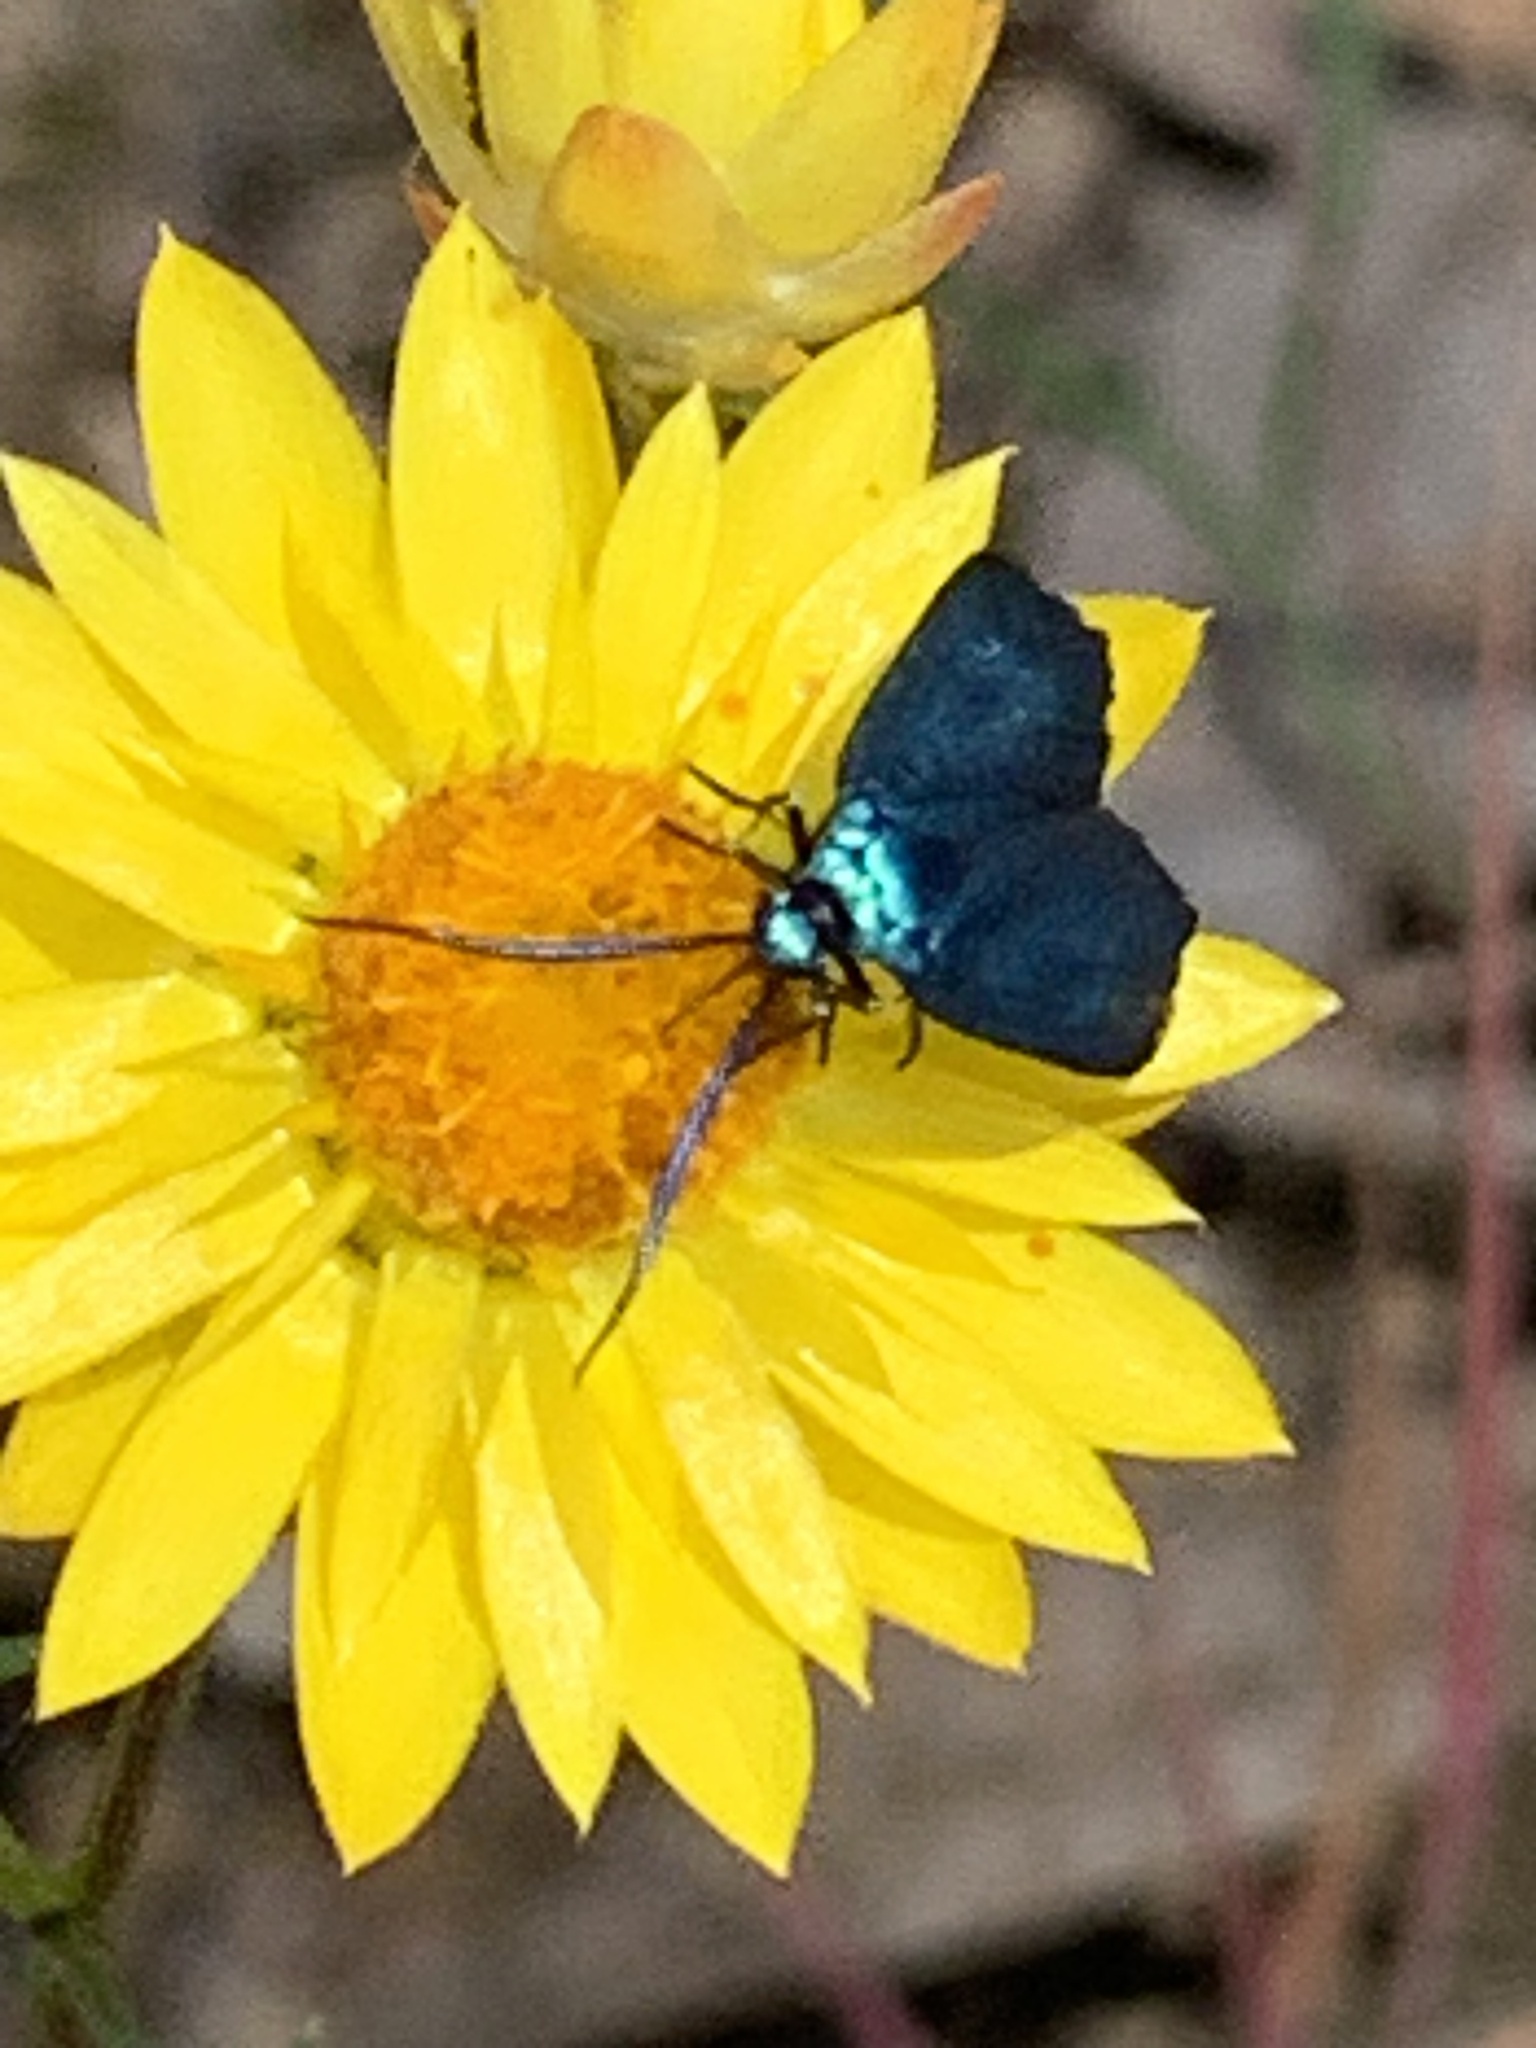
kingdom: Animalia
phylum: Arthropoda
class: Insecta
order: Lepidoptera
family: Zygaenidae
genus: Pollanisus
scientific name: Pollanisus viridipulverulenta
